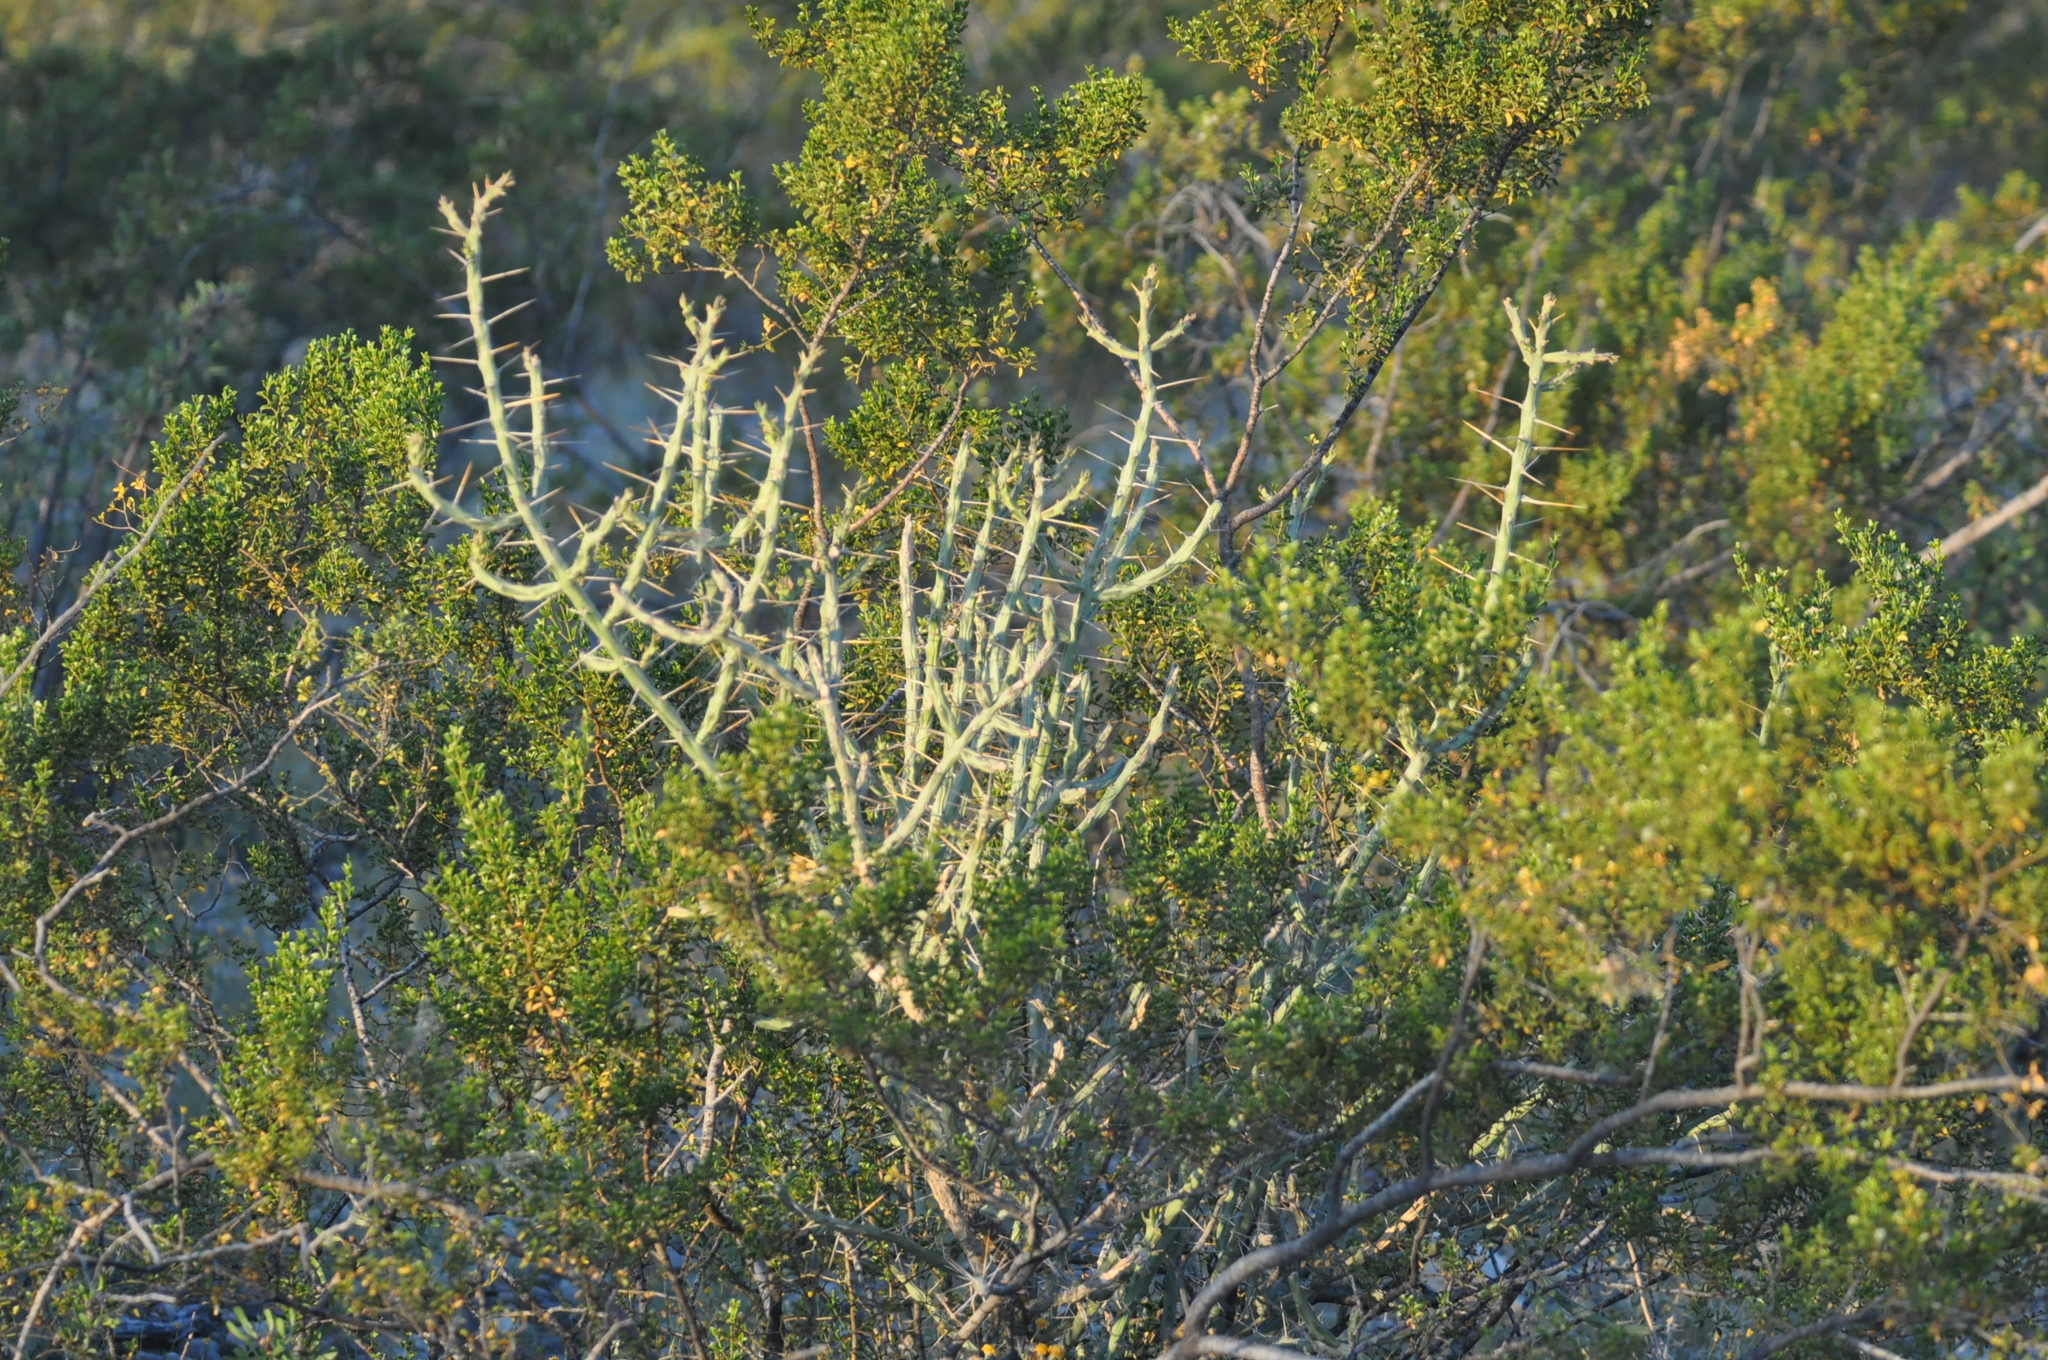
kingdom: Plantae
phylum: Tracheophyta
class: Magnoliopsida
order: Caryophyllales
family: Cactaceae
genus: Cylindropuntia
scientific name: Cylindropuntia leptocaulis
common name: Christmas cactus
